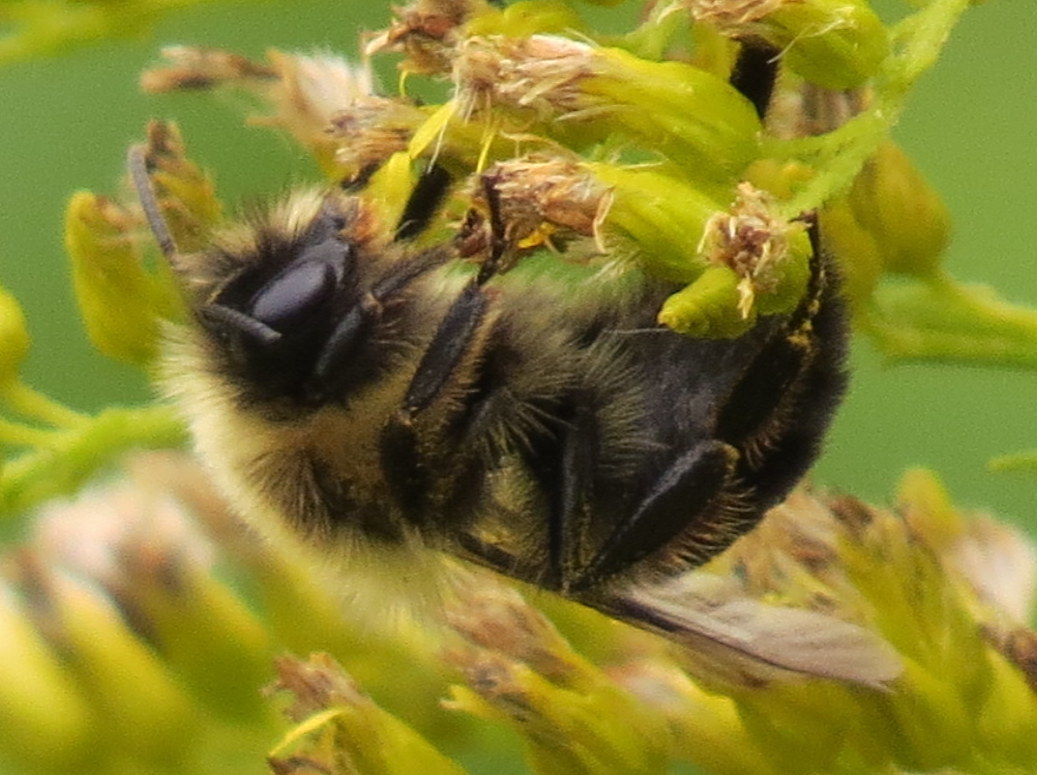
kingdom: Animalia
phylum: Arthropoda
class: Insecta
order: Hymenoptera
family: Apidae
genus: Bombus
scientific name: Bombus impatiens
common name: Common eastern bumble bee
